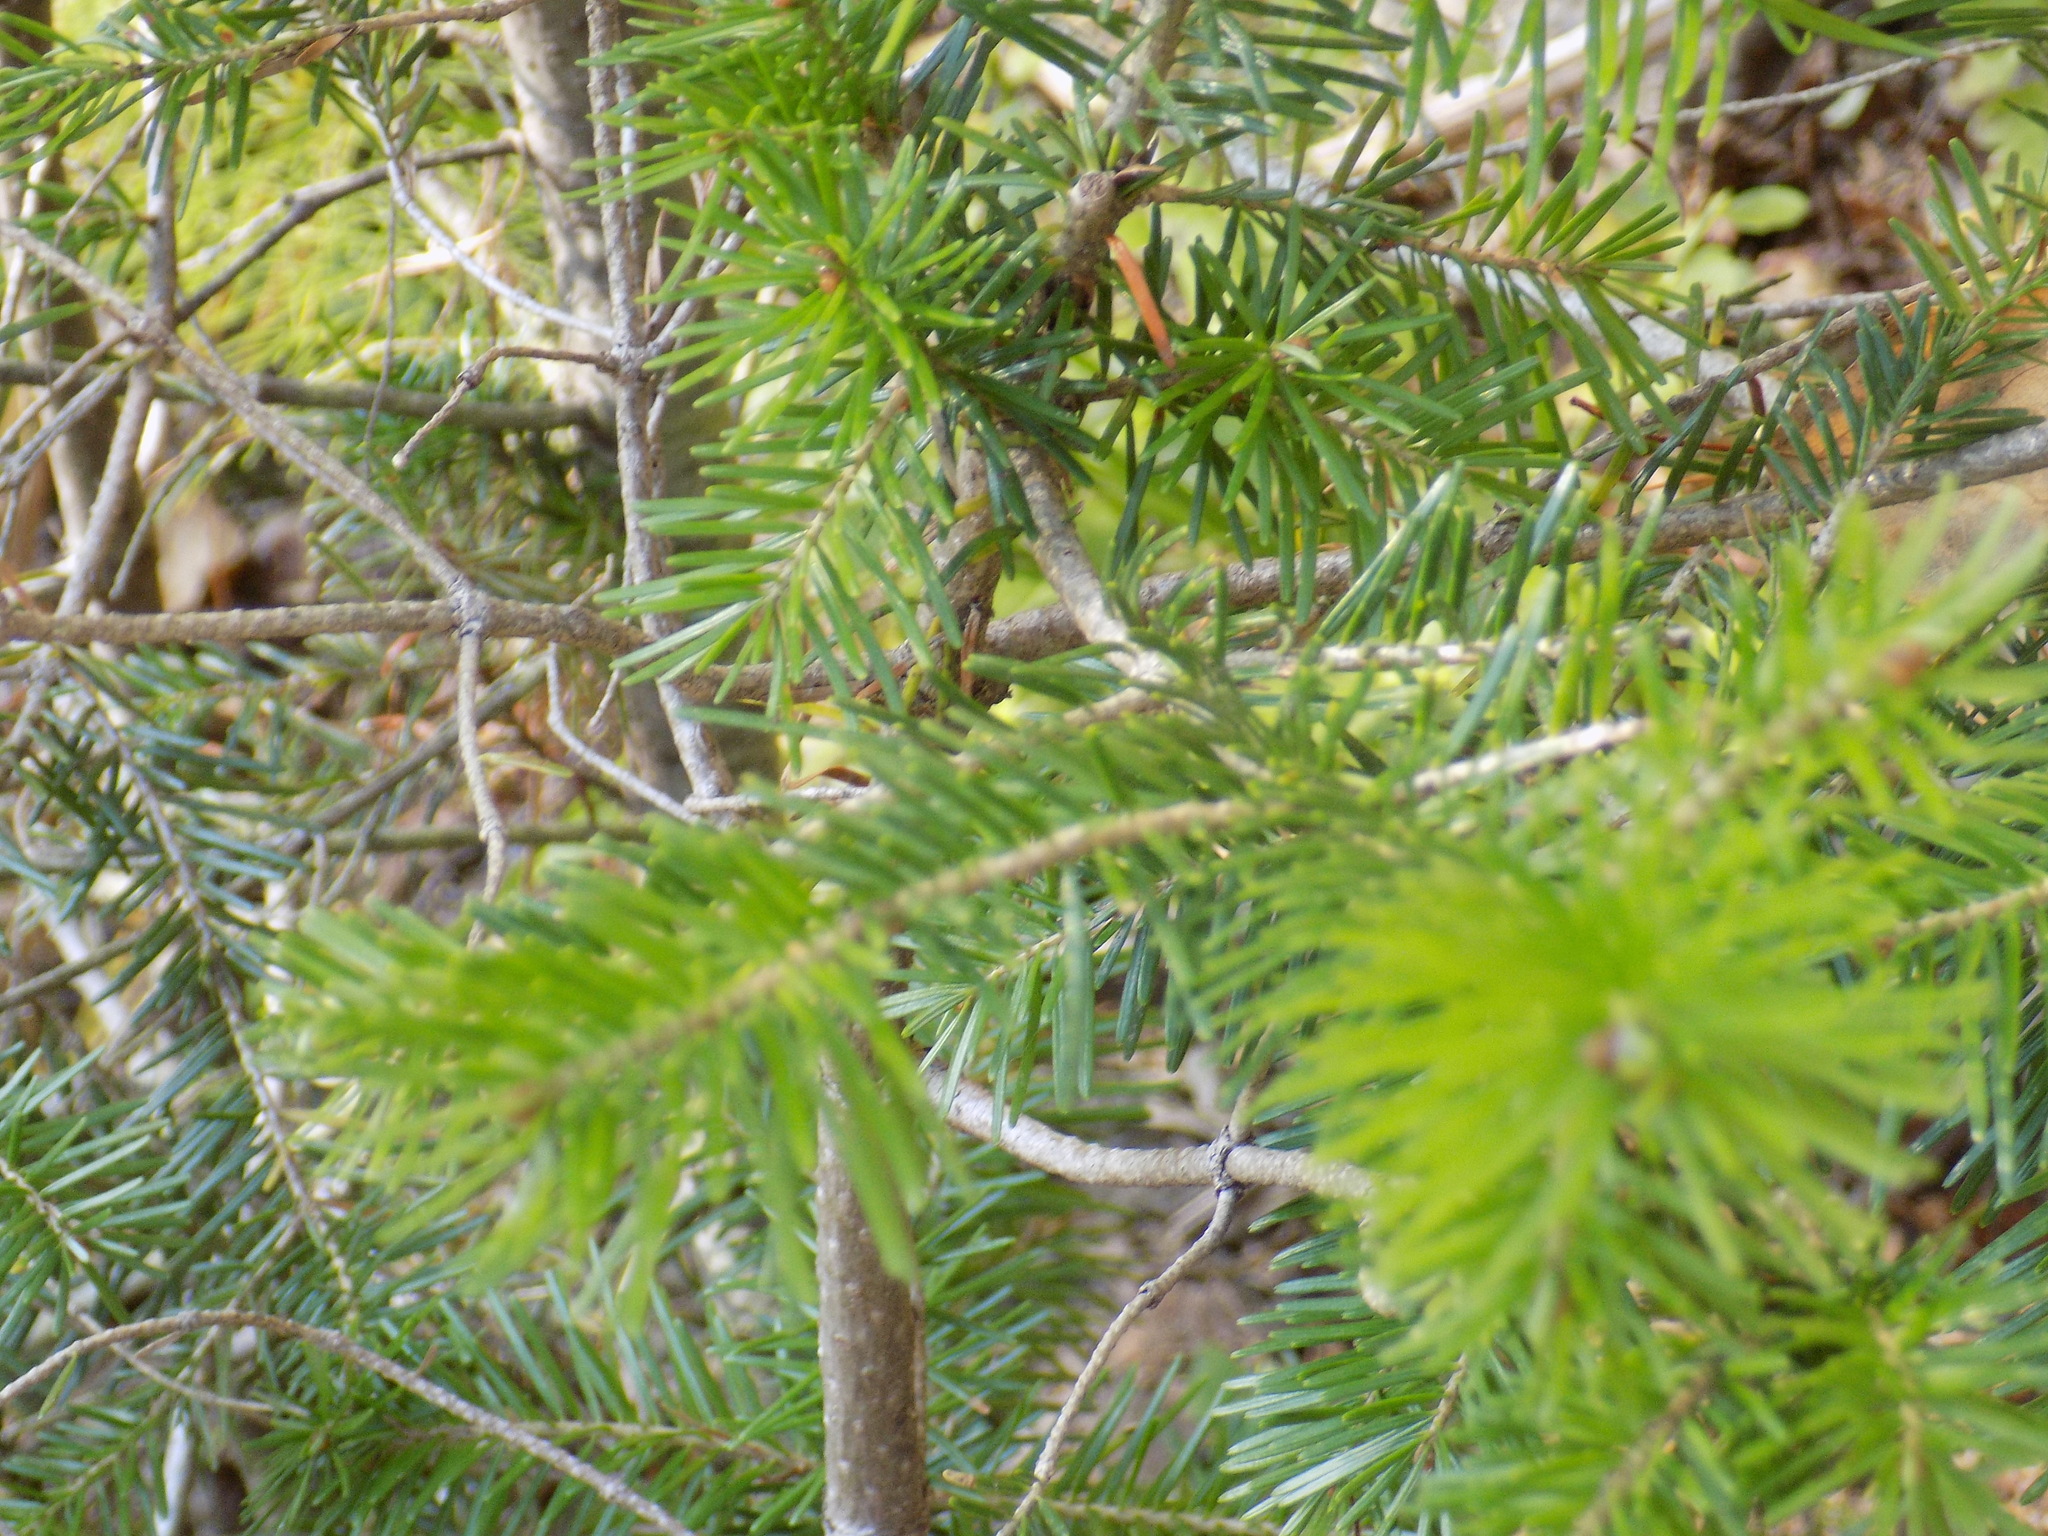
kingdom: Plantae
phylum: Tracheophyta
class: Pinopsida
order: Pinales
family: Pinaceae
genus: Abies
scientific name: Abies sibirica
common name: Siberian fir
